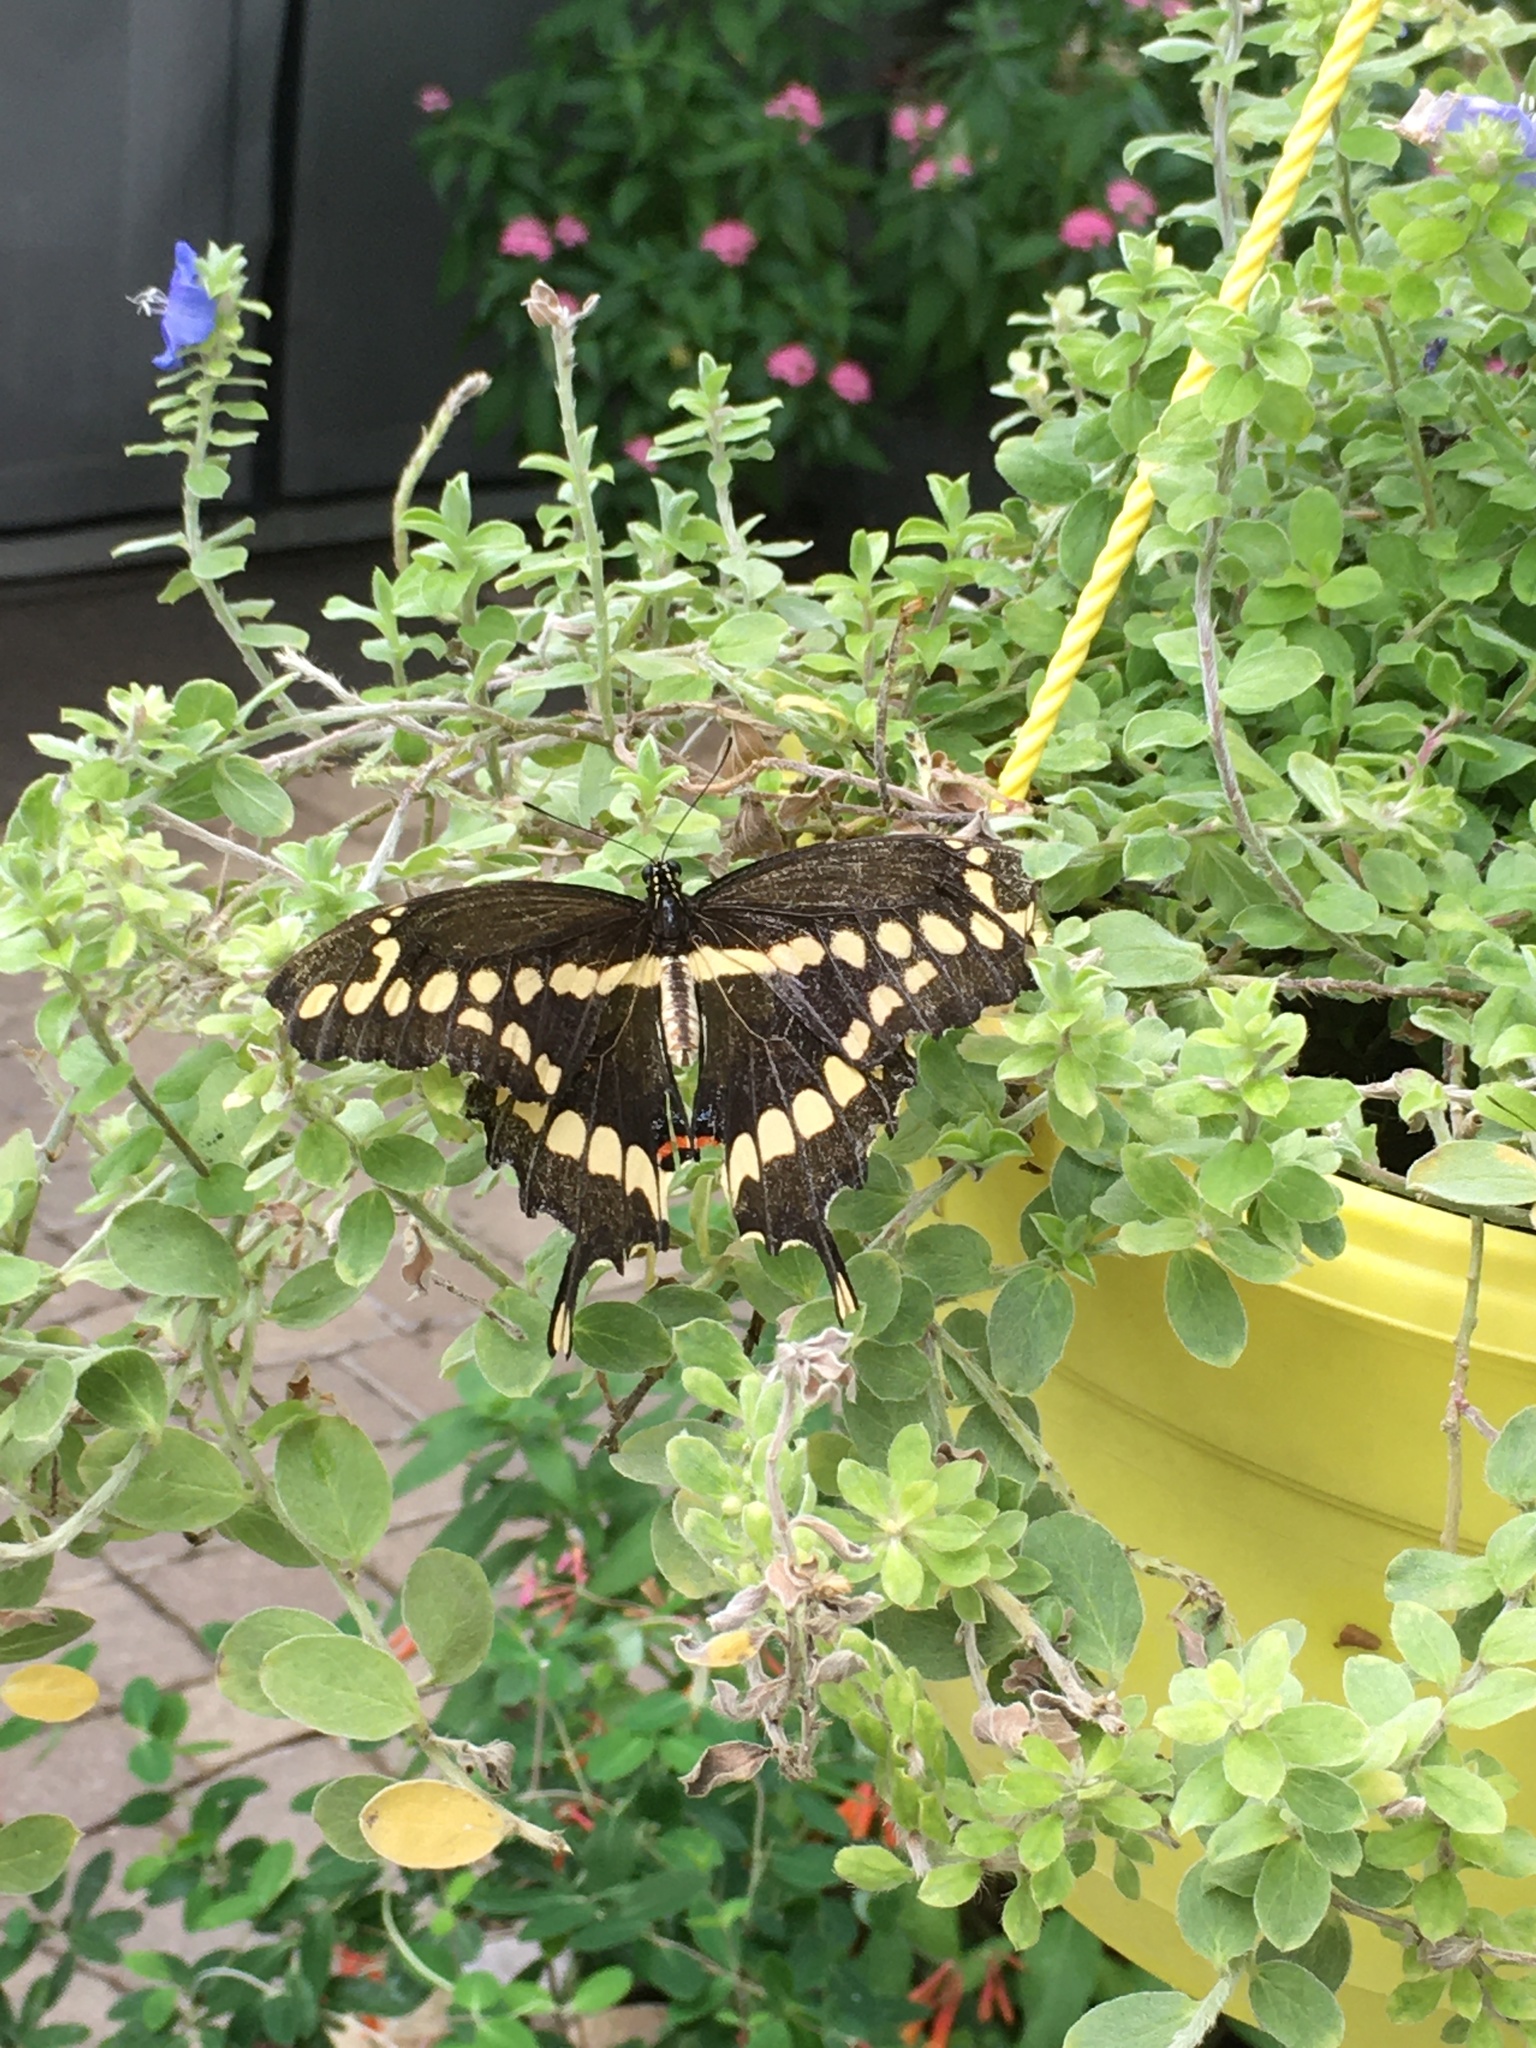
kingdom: Animalia
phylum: Arthropoda
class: Insecta
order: Lepidoptera
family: Papilionidae
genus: Papilio
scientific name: Papilio cresphontes
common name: Giant swallowtail
